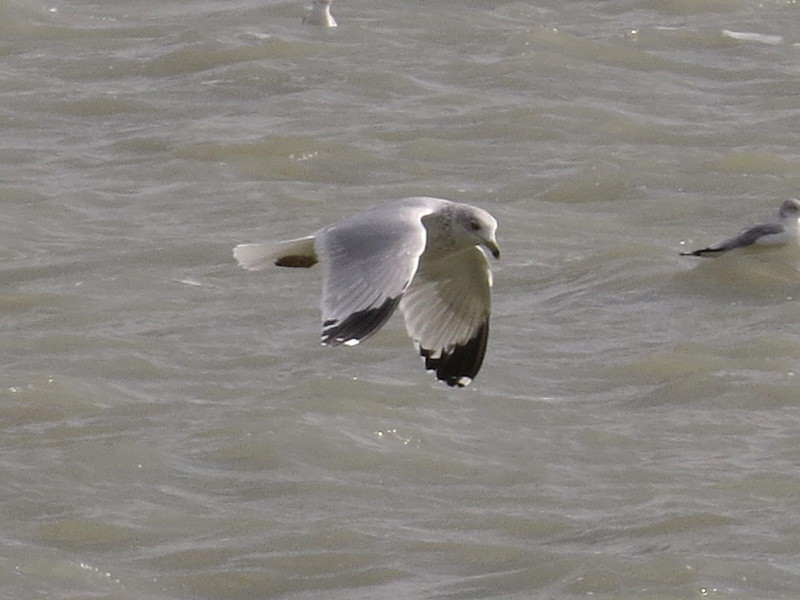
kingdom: Animalia
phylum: Chordata
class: Aves
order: Charadriiformes
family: Laridae
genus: Larus
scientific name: Larus delawarensis
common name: Ring-billed gull
